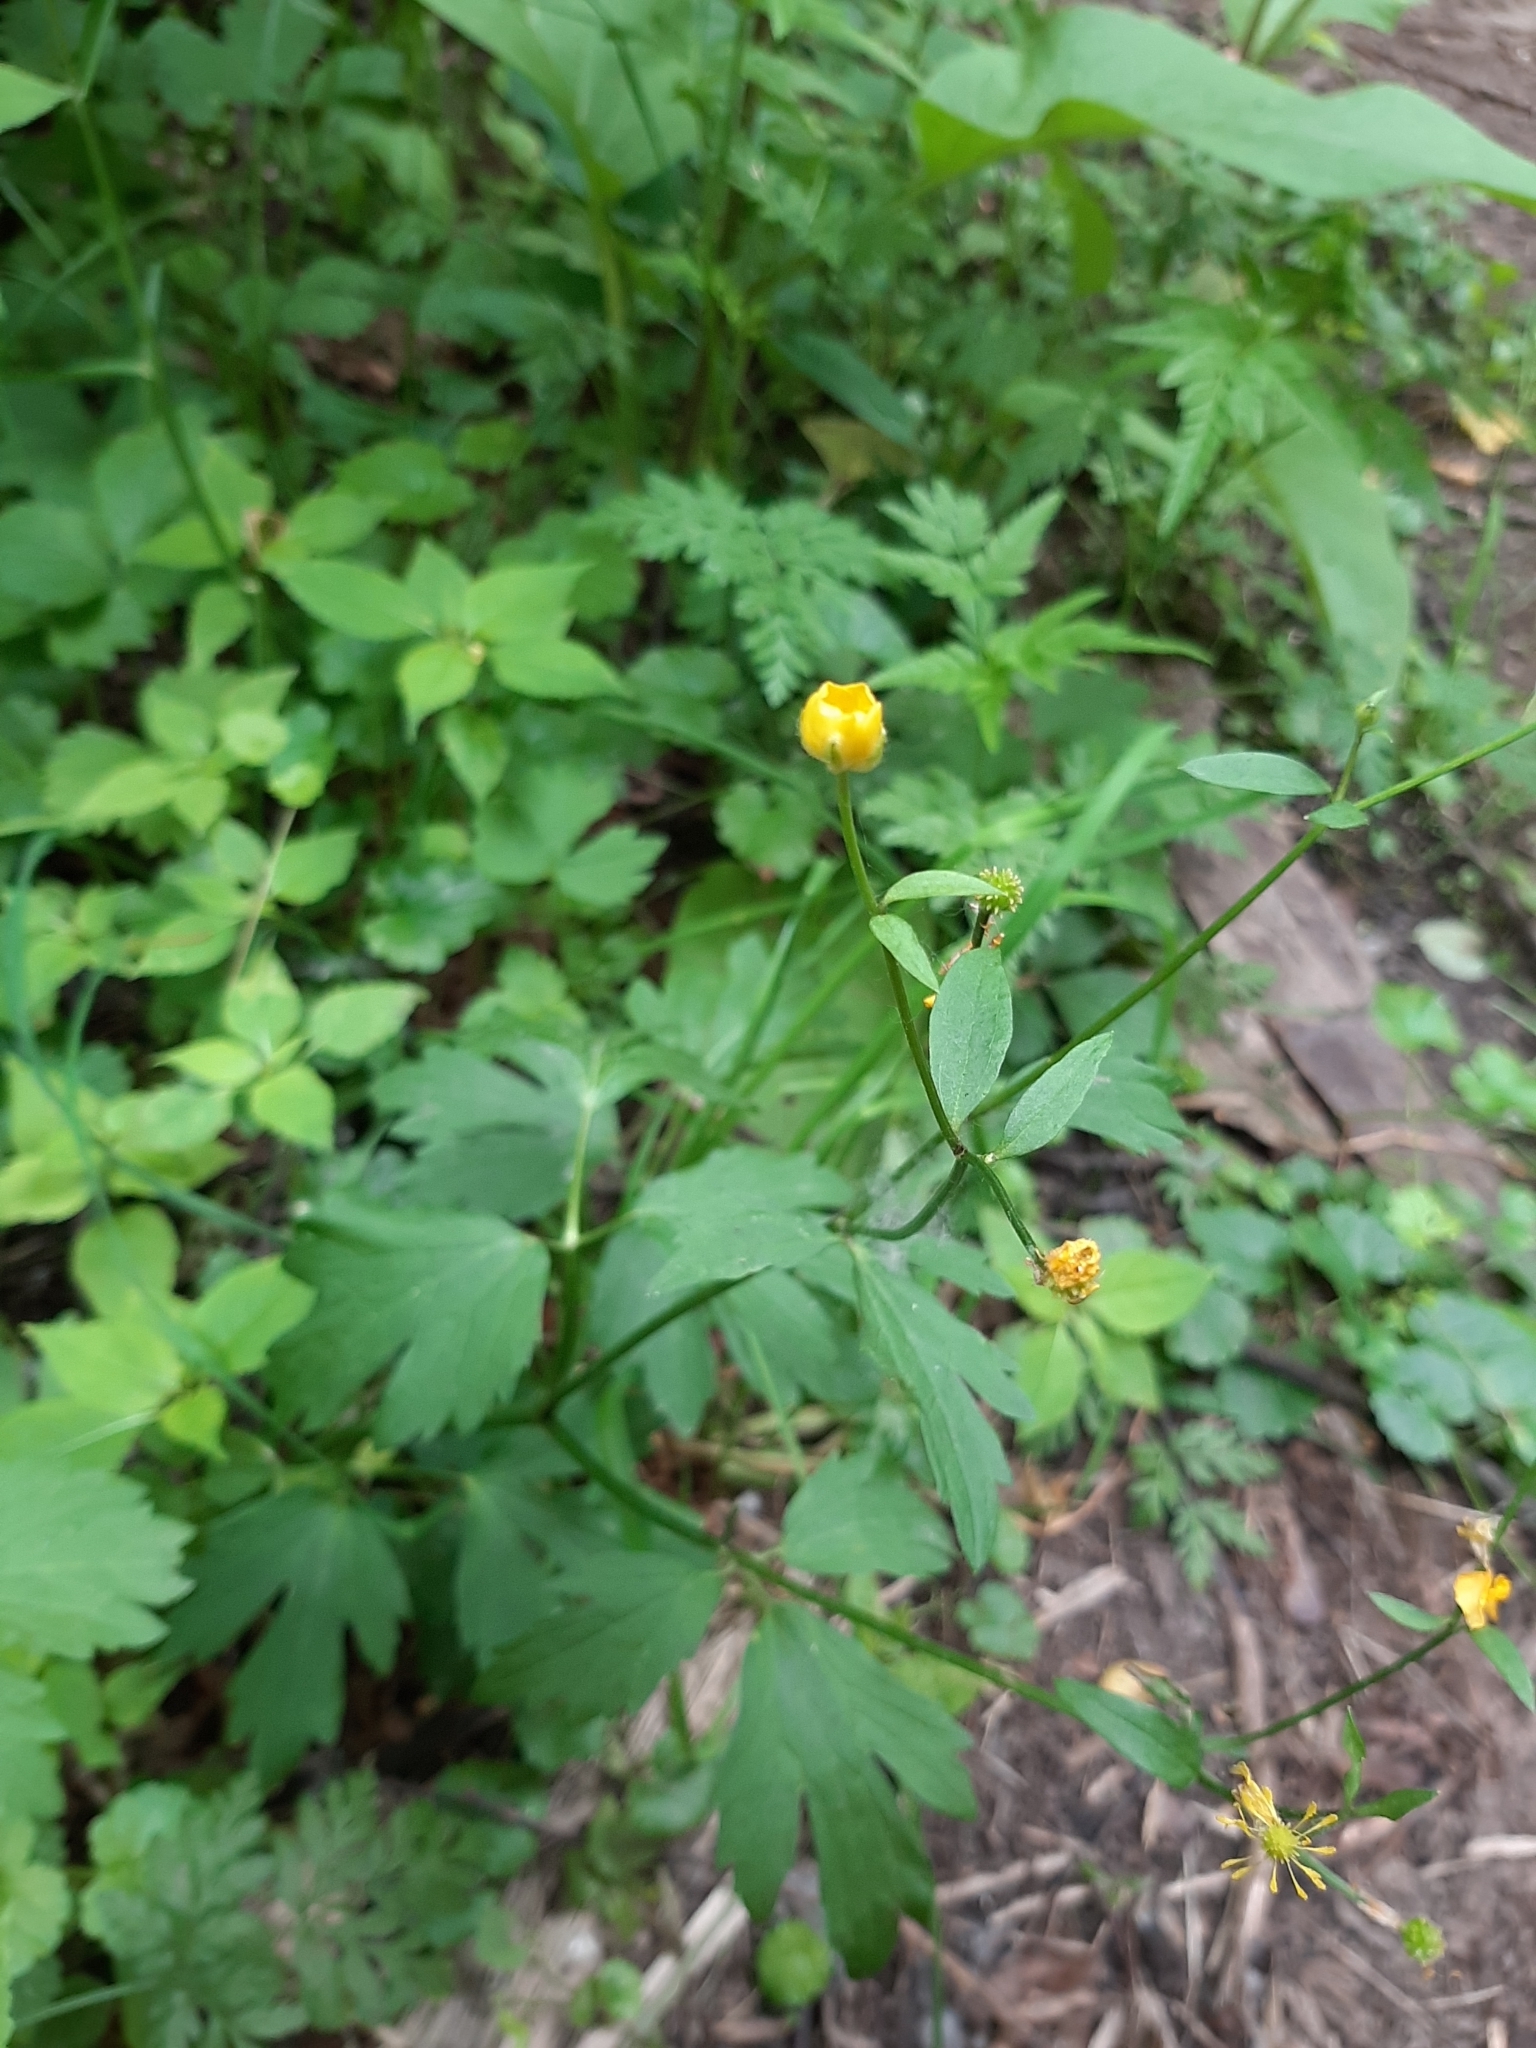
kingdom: Plantae
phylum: Tracheophyta
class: Magnoliopsida
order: Ranunculales
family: Ranunculaceae
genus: Ranunculus
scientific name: Ranunculus repens
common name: Creeping buttercup
